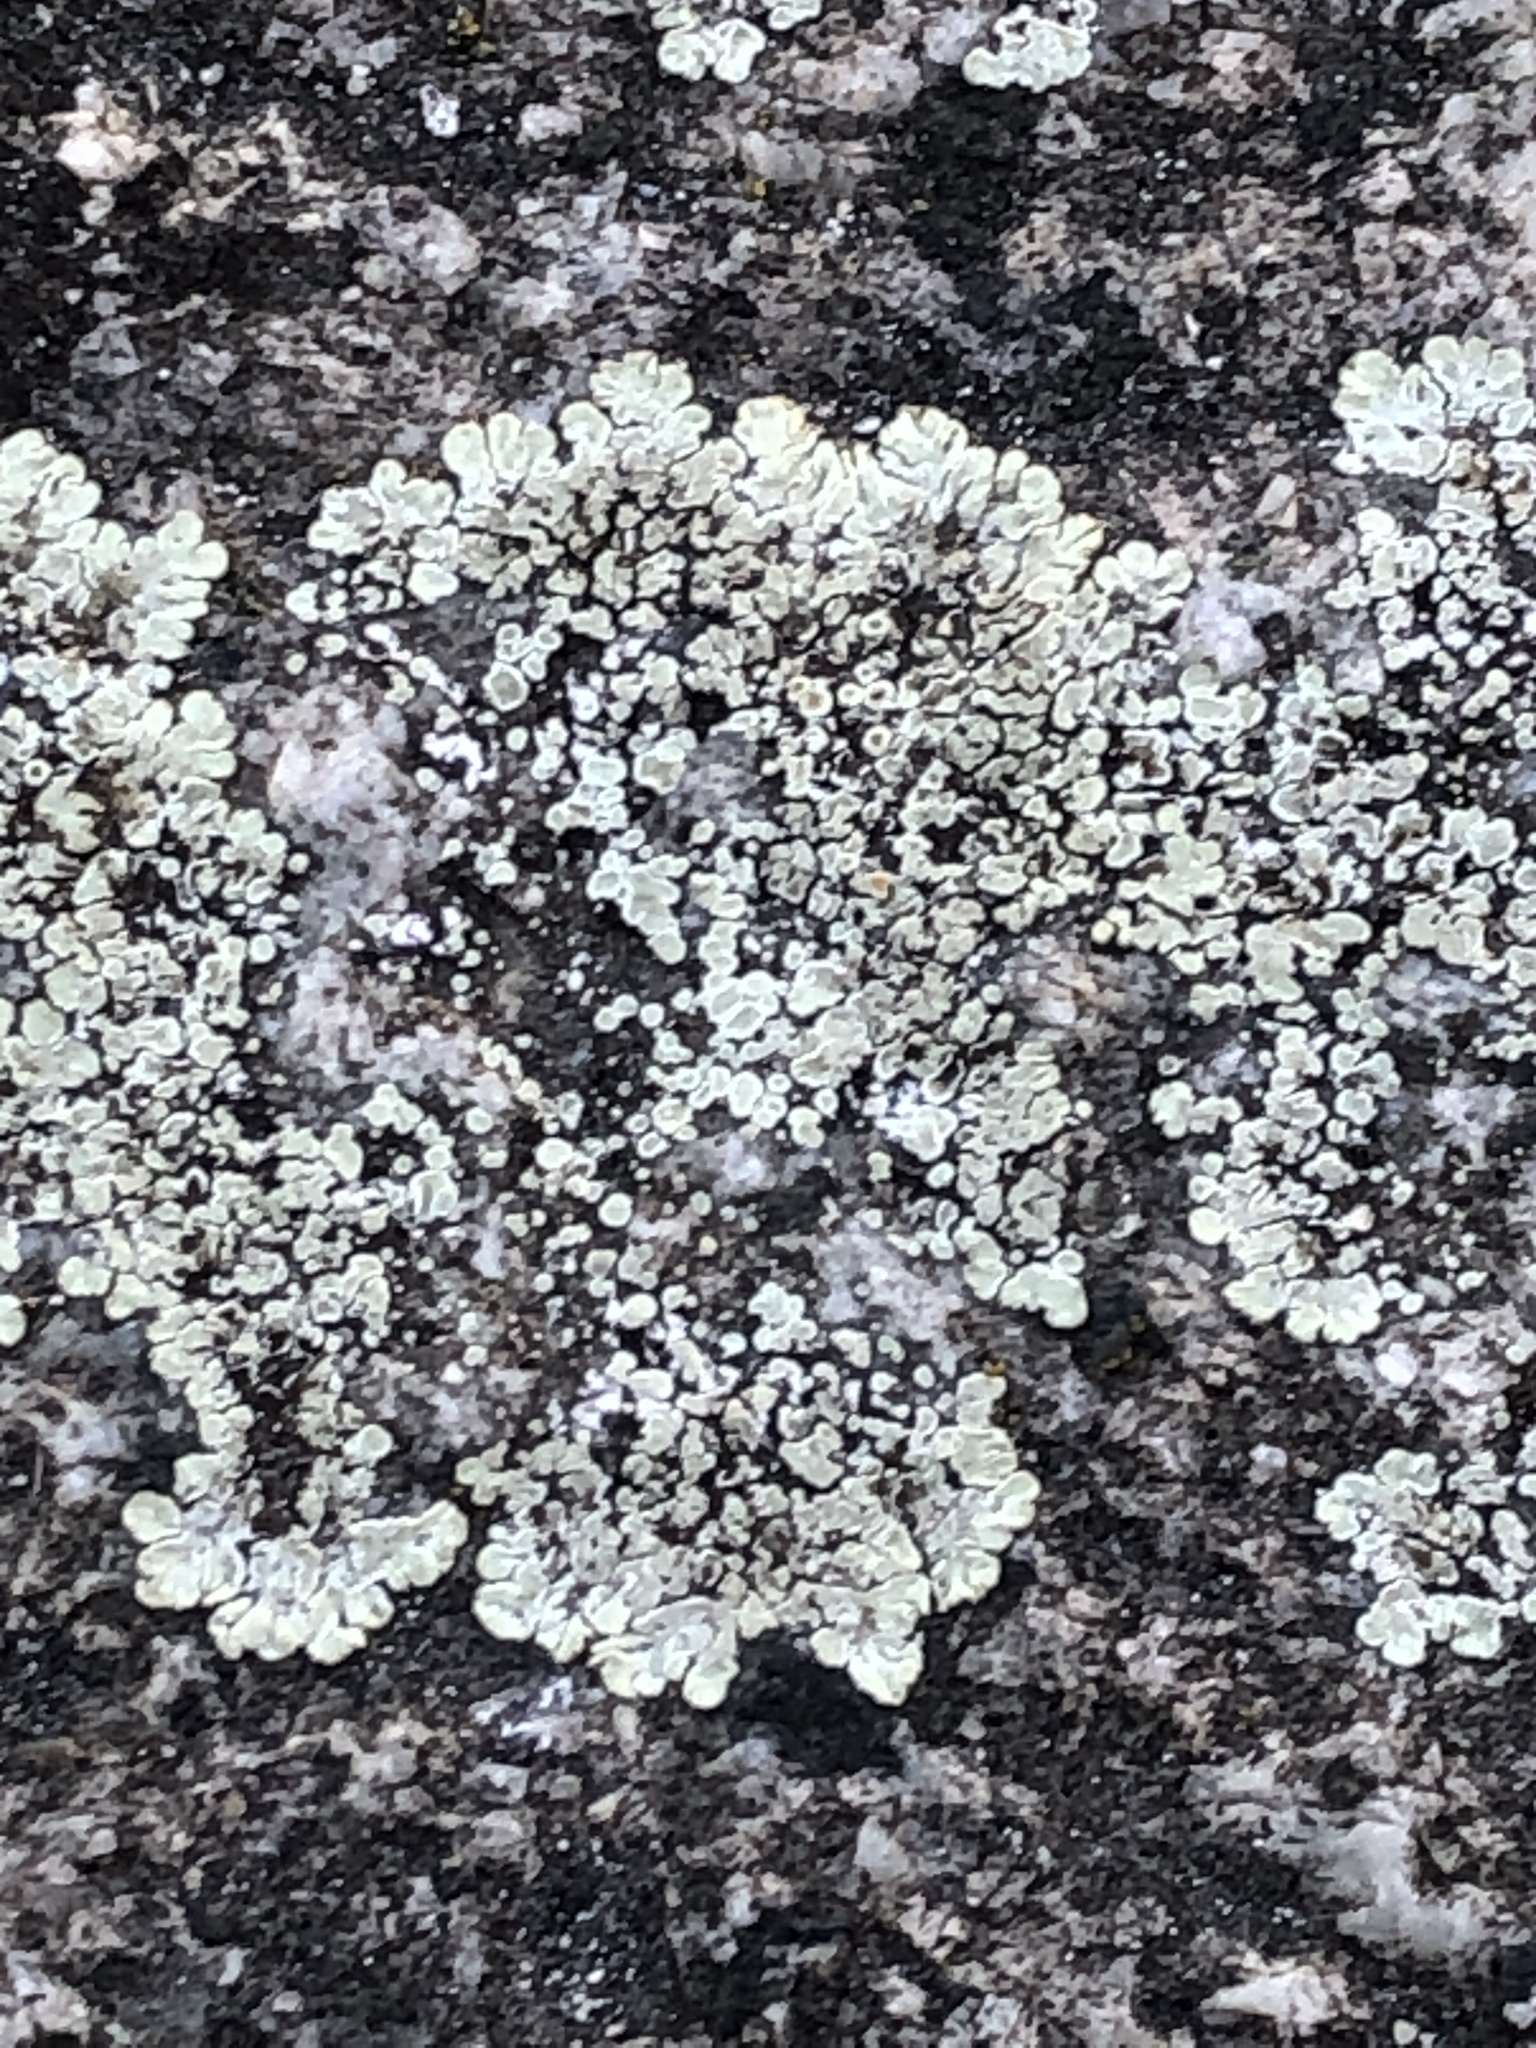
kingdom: Fungi
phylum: Ascomycota
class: Lecanoromycetes
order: Lecanorales
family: Lecanoraceae
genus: Protoparmeliopsis
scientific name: Protoparmeliopsis muralis
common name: Stonewall rim lichen
